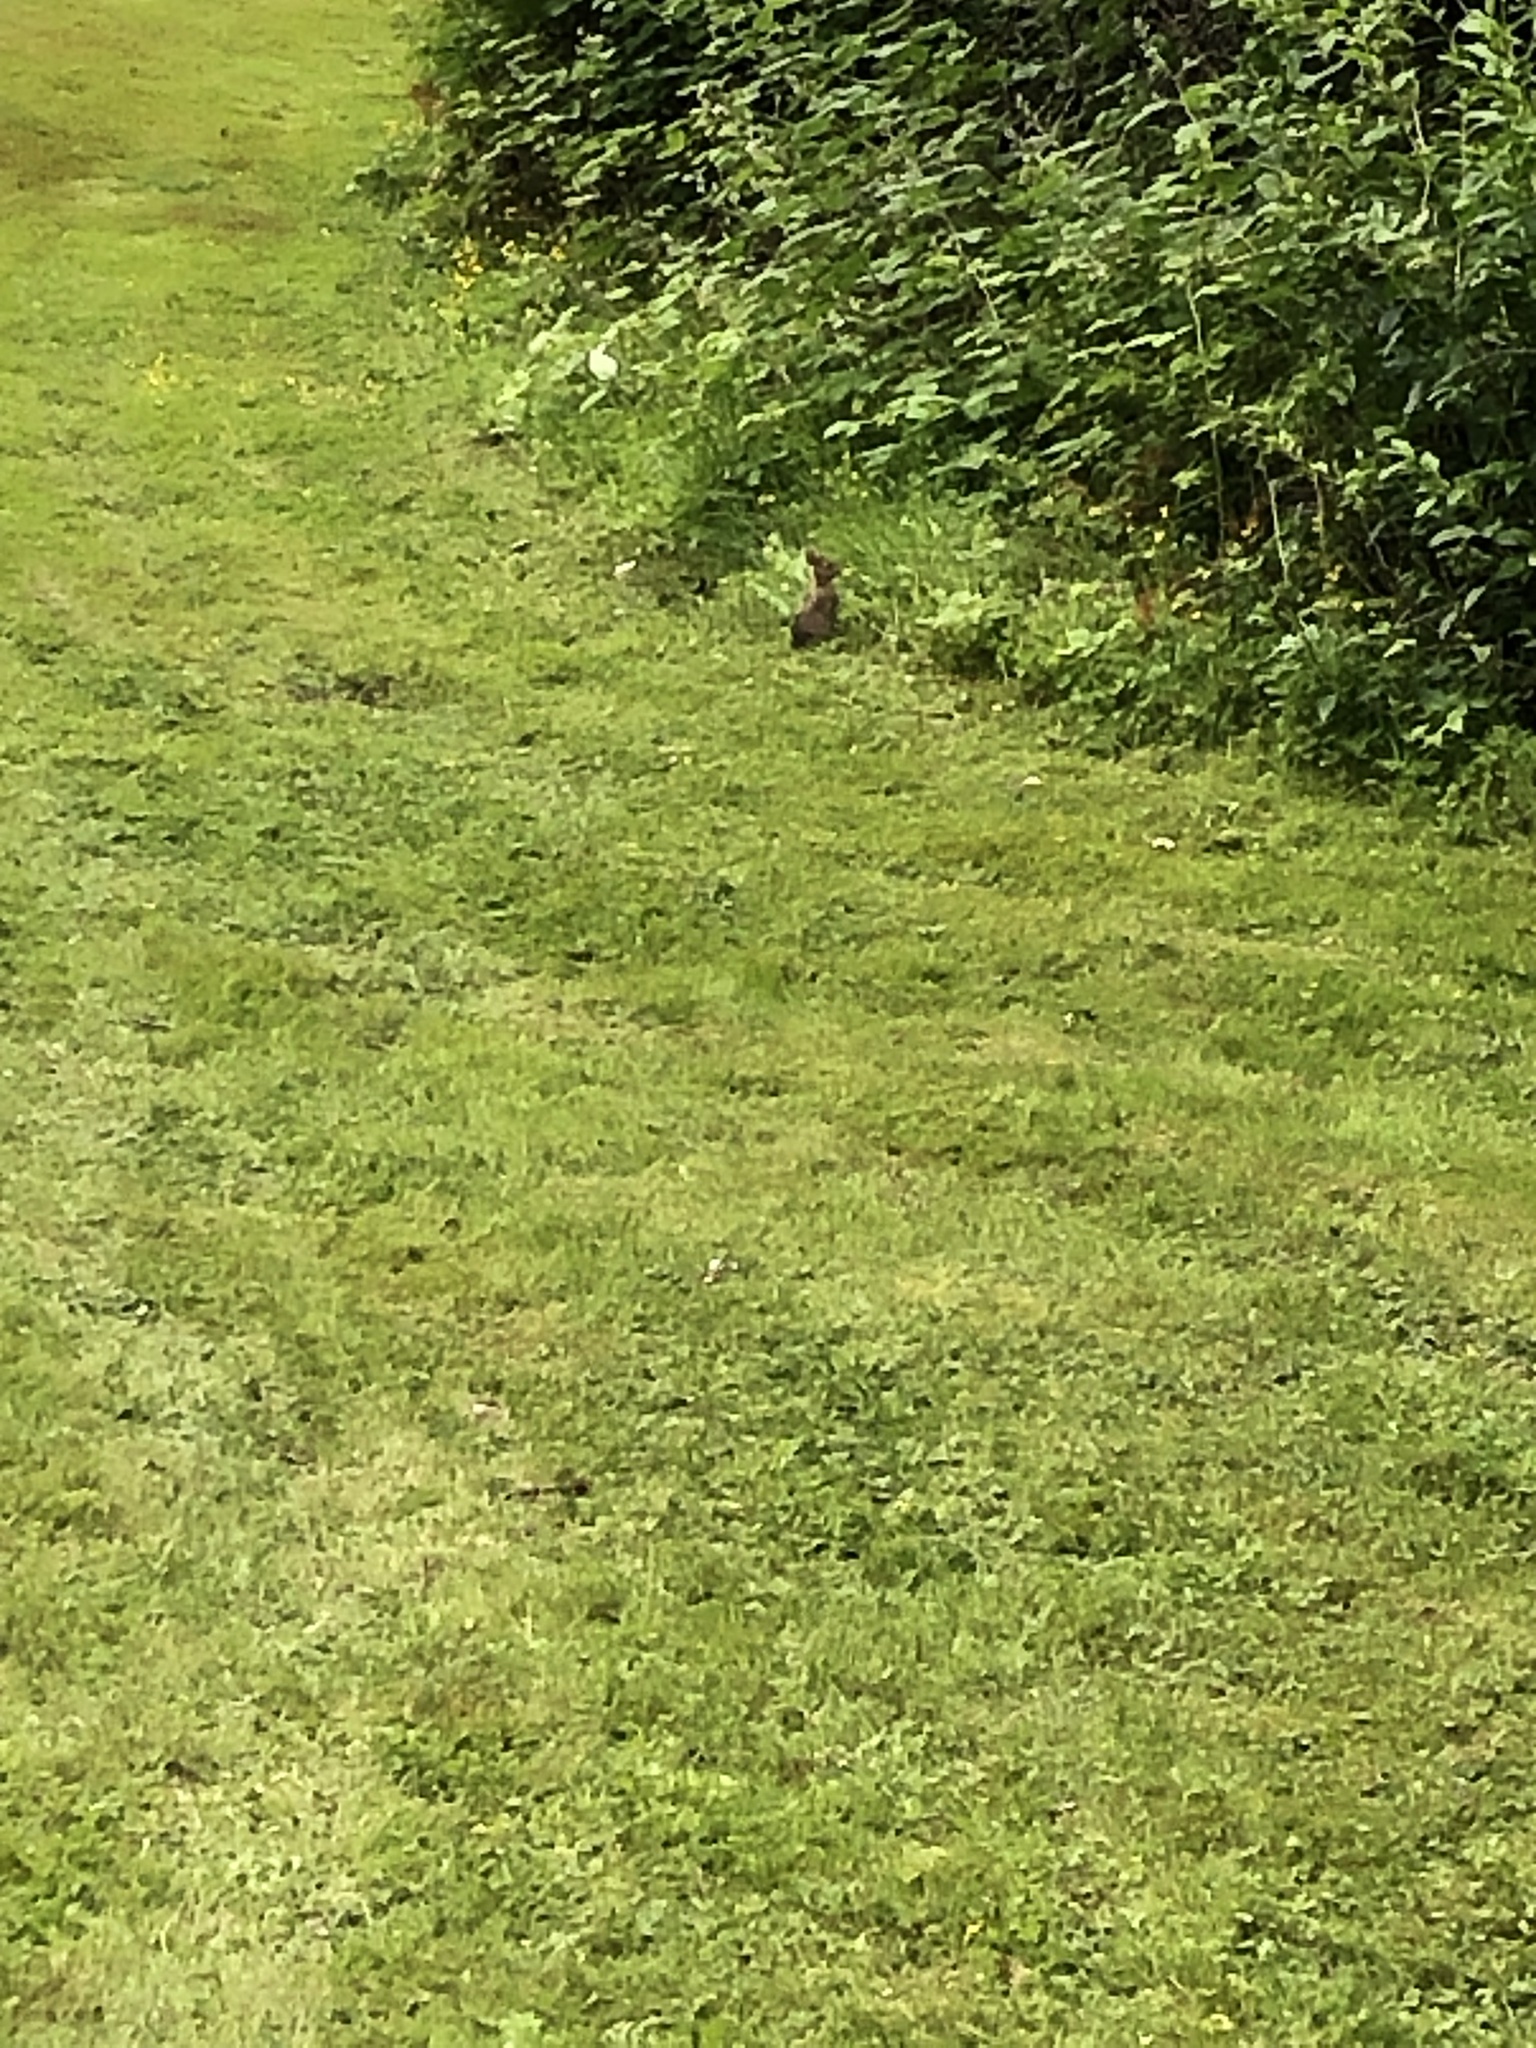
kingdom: Animalia
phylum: Chordata
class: Mammalia
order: Lagomorpha
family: Leporidae
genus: Sylvilagus
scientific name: Sylvilagus floridanus
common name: Eastern cottontail
